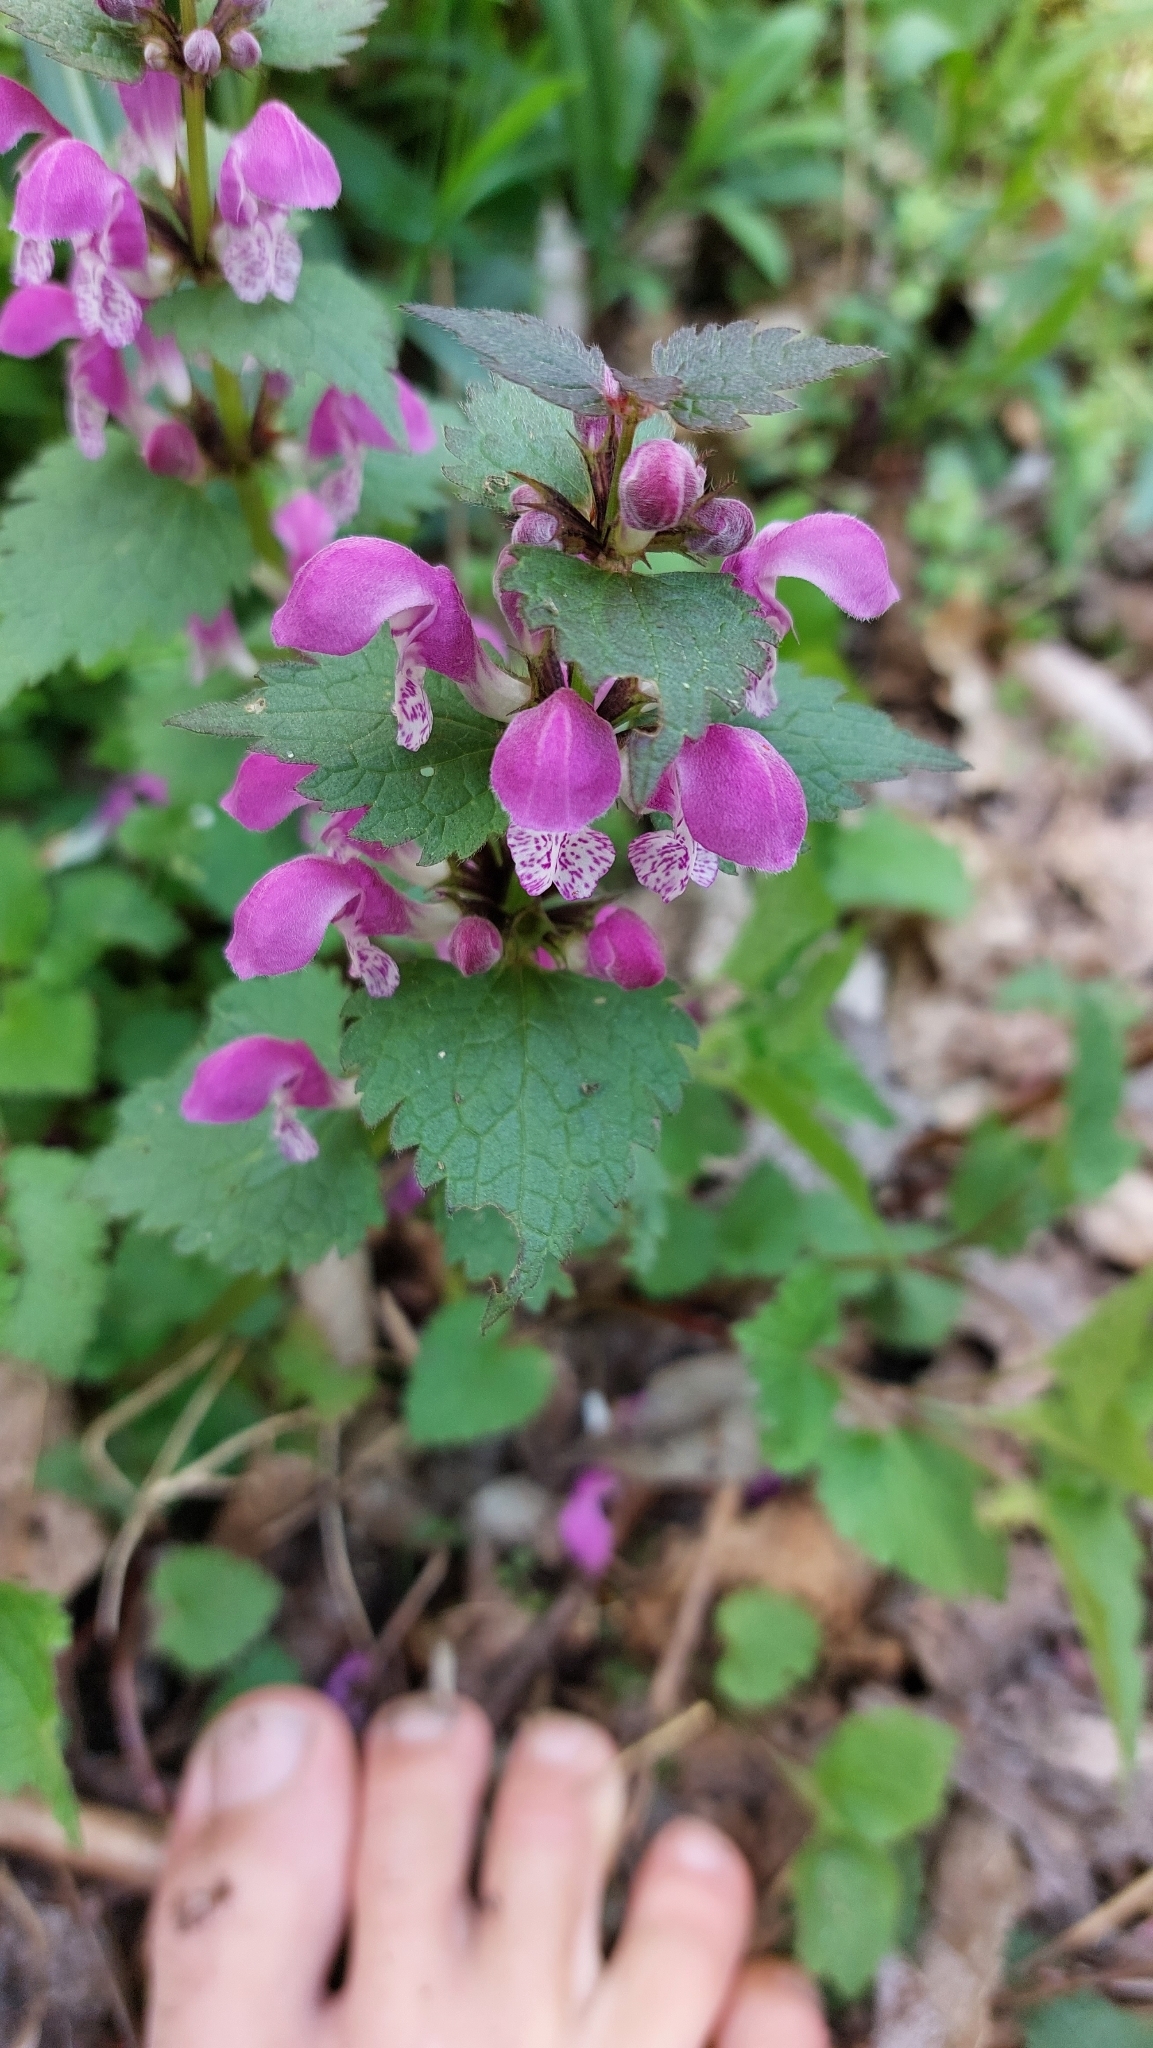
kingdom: Plantae
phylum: Tracheophyta
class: Magnoliopsida
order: Lamiales
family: Lamiaceae
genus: Lamium
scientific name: Lamium maculatum
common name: Spotted dead-nettle
